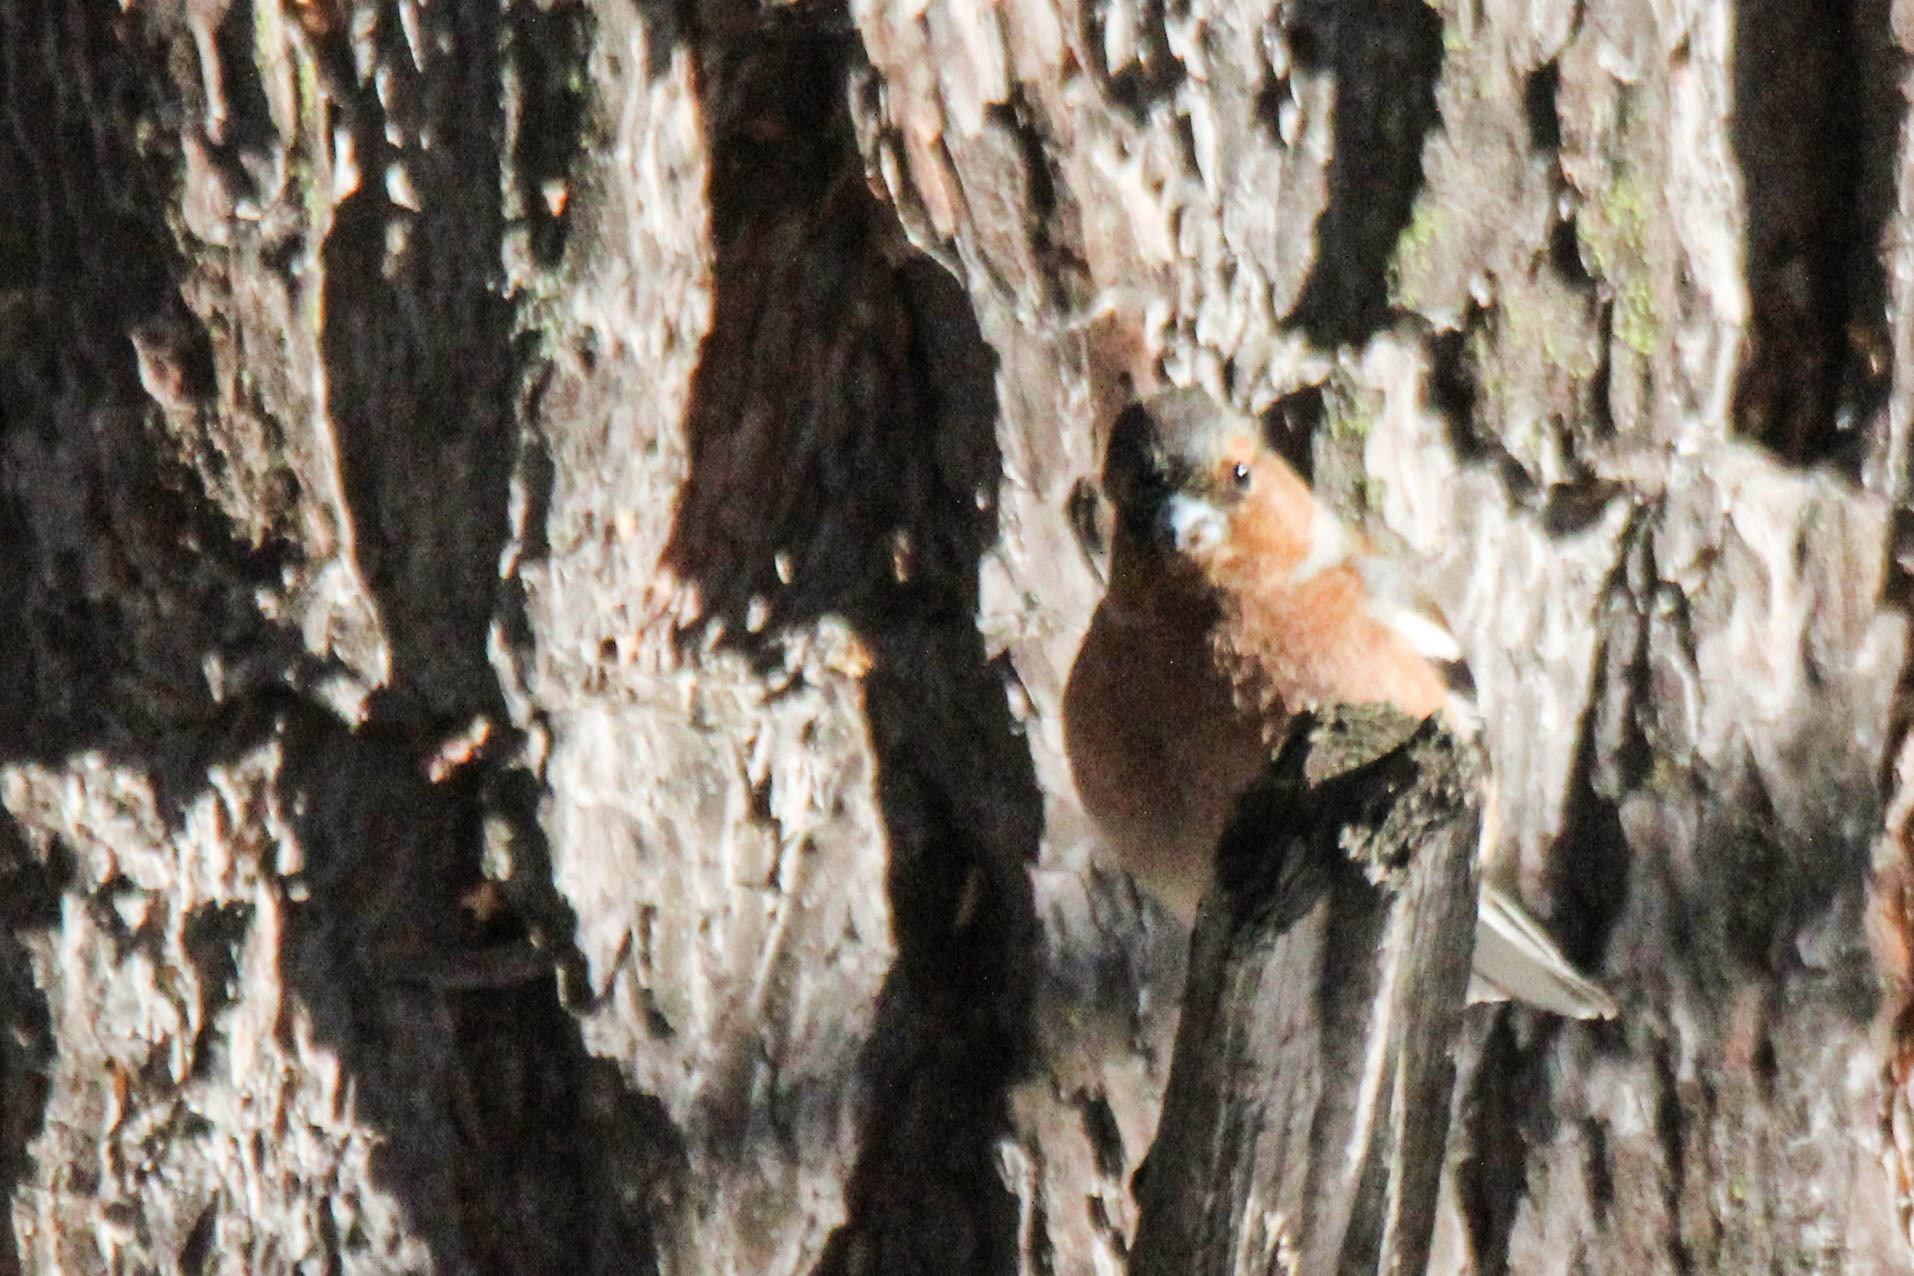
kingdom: Animalia
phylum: Chordata
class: Aves
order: Passeriformes
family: Fringillidae
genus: Fringilla
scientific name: Fringilla coelebs
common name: Common chaffinch
